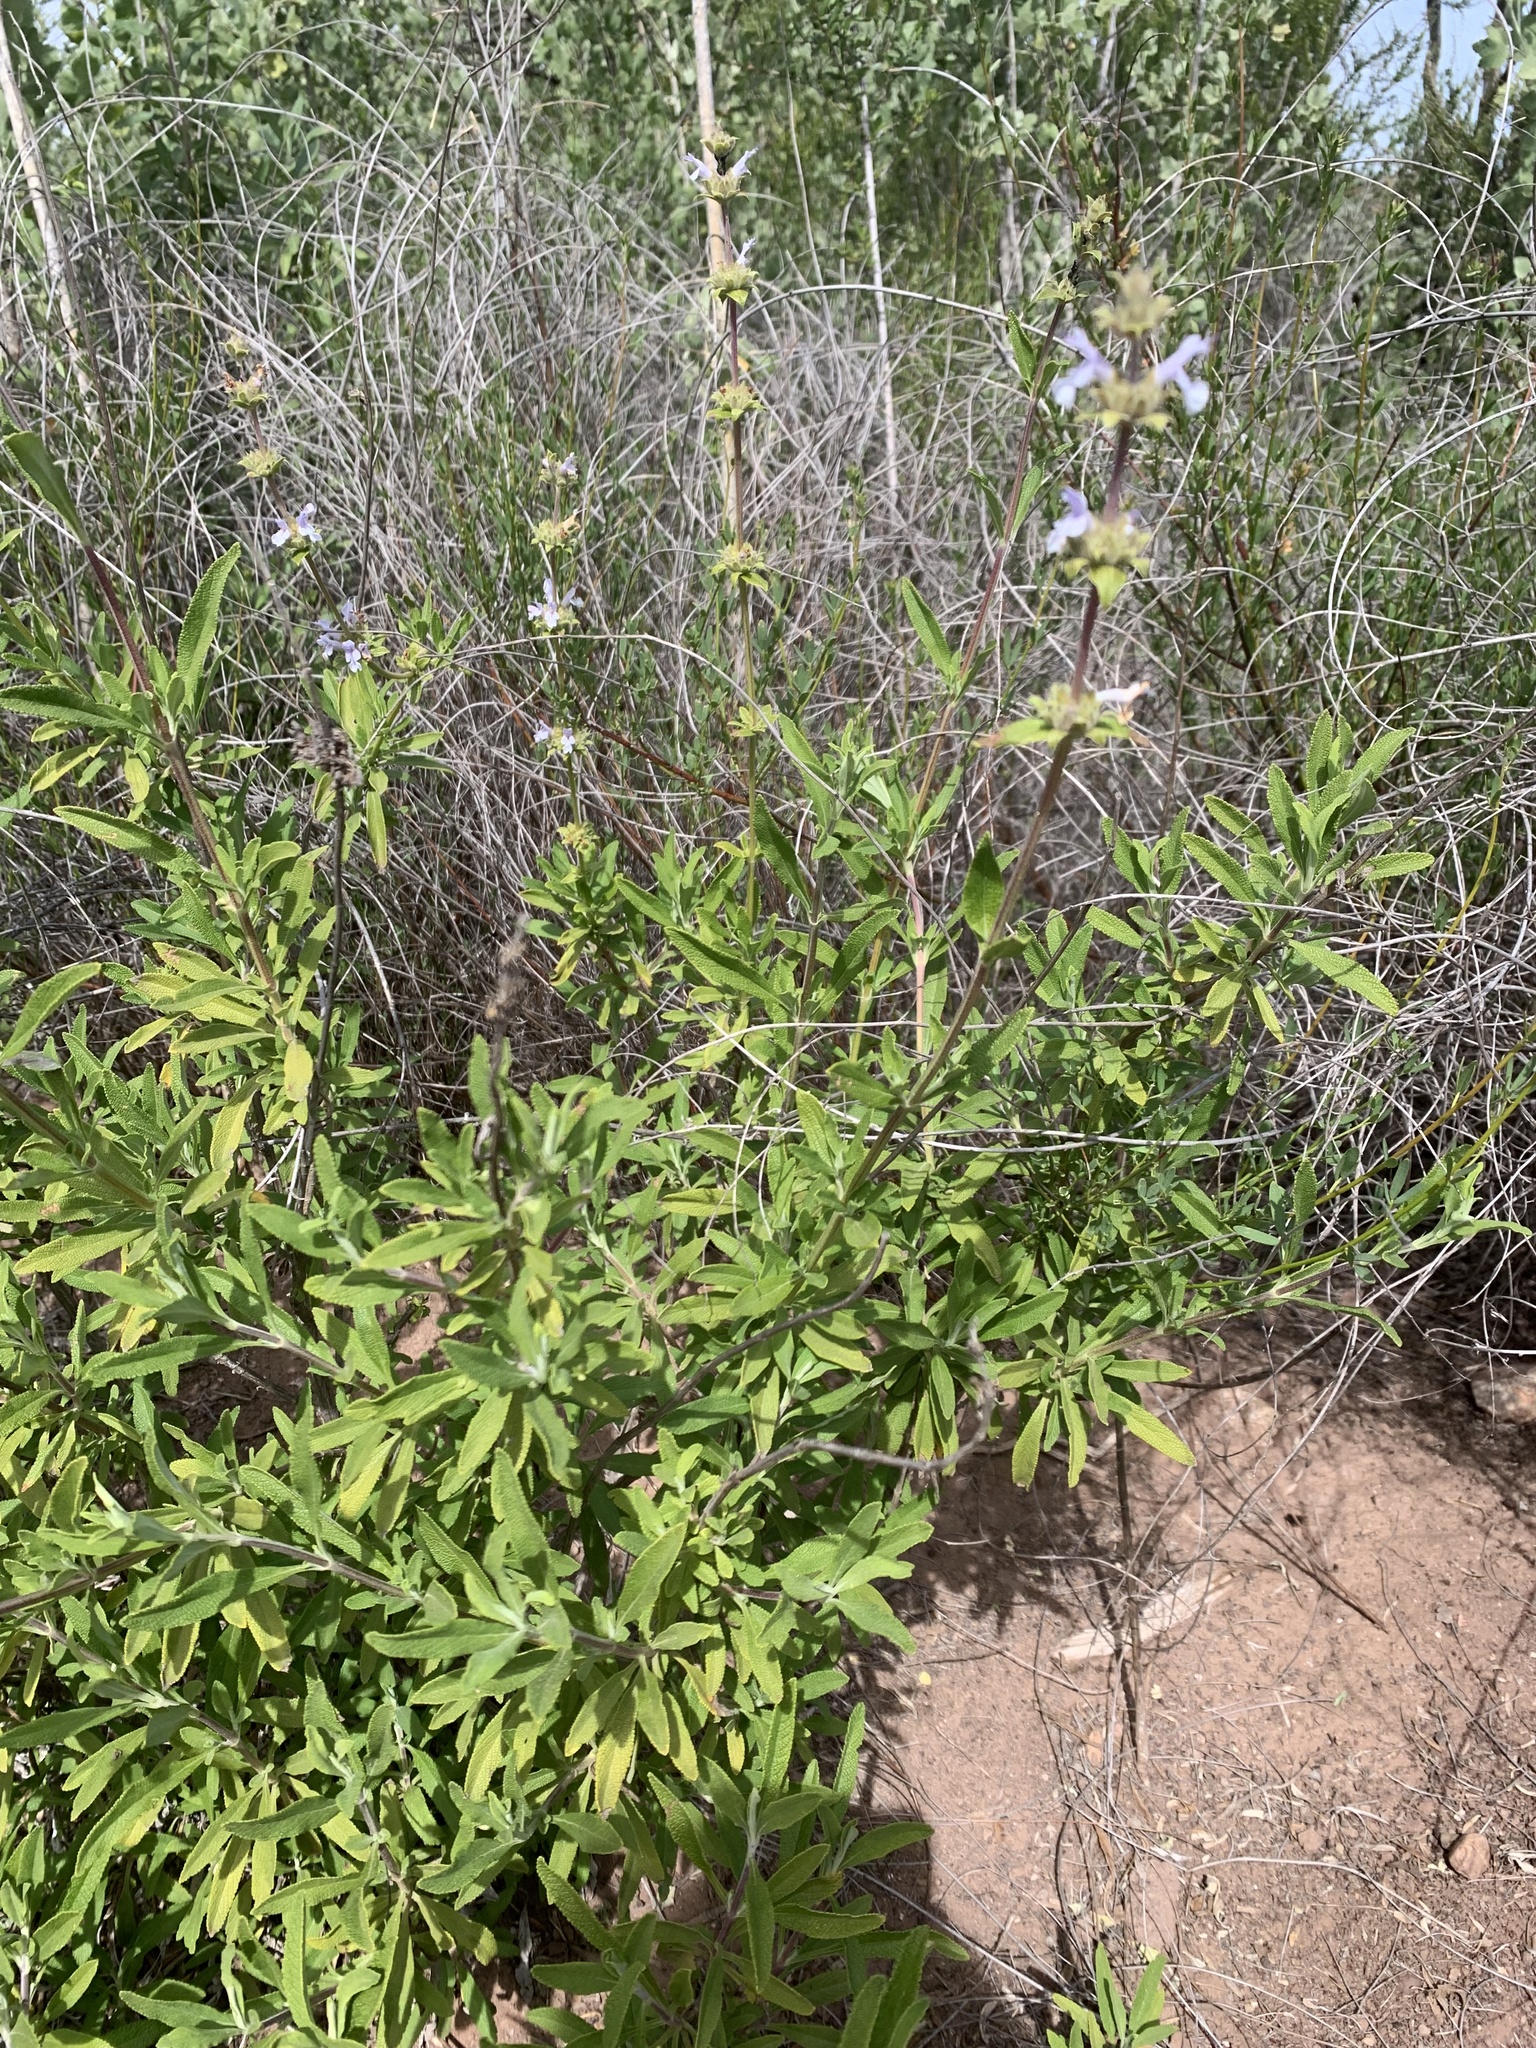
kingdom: Plantae
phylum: Tracheophyta
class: Magnoliopsida
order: Lamiales
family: Lamiaceae
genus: Salvia
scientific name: Salvia mellifera
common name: Black sage
